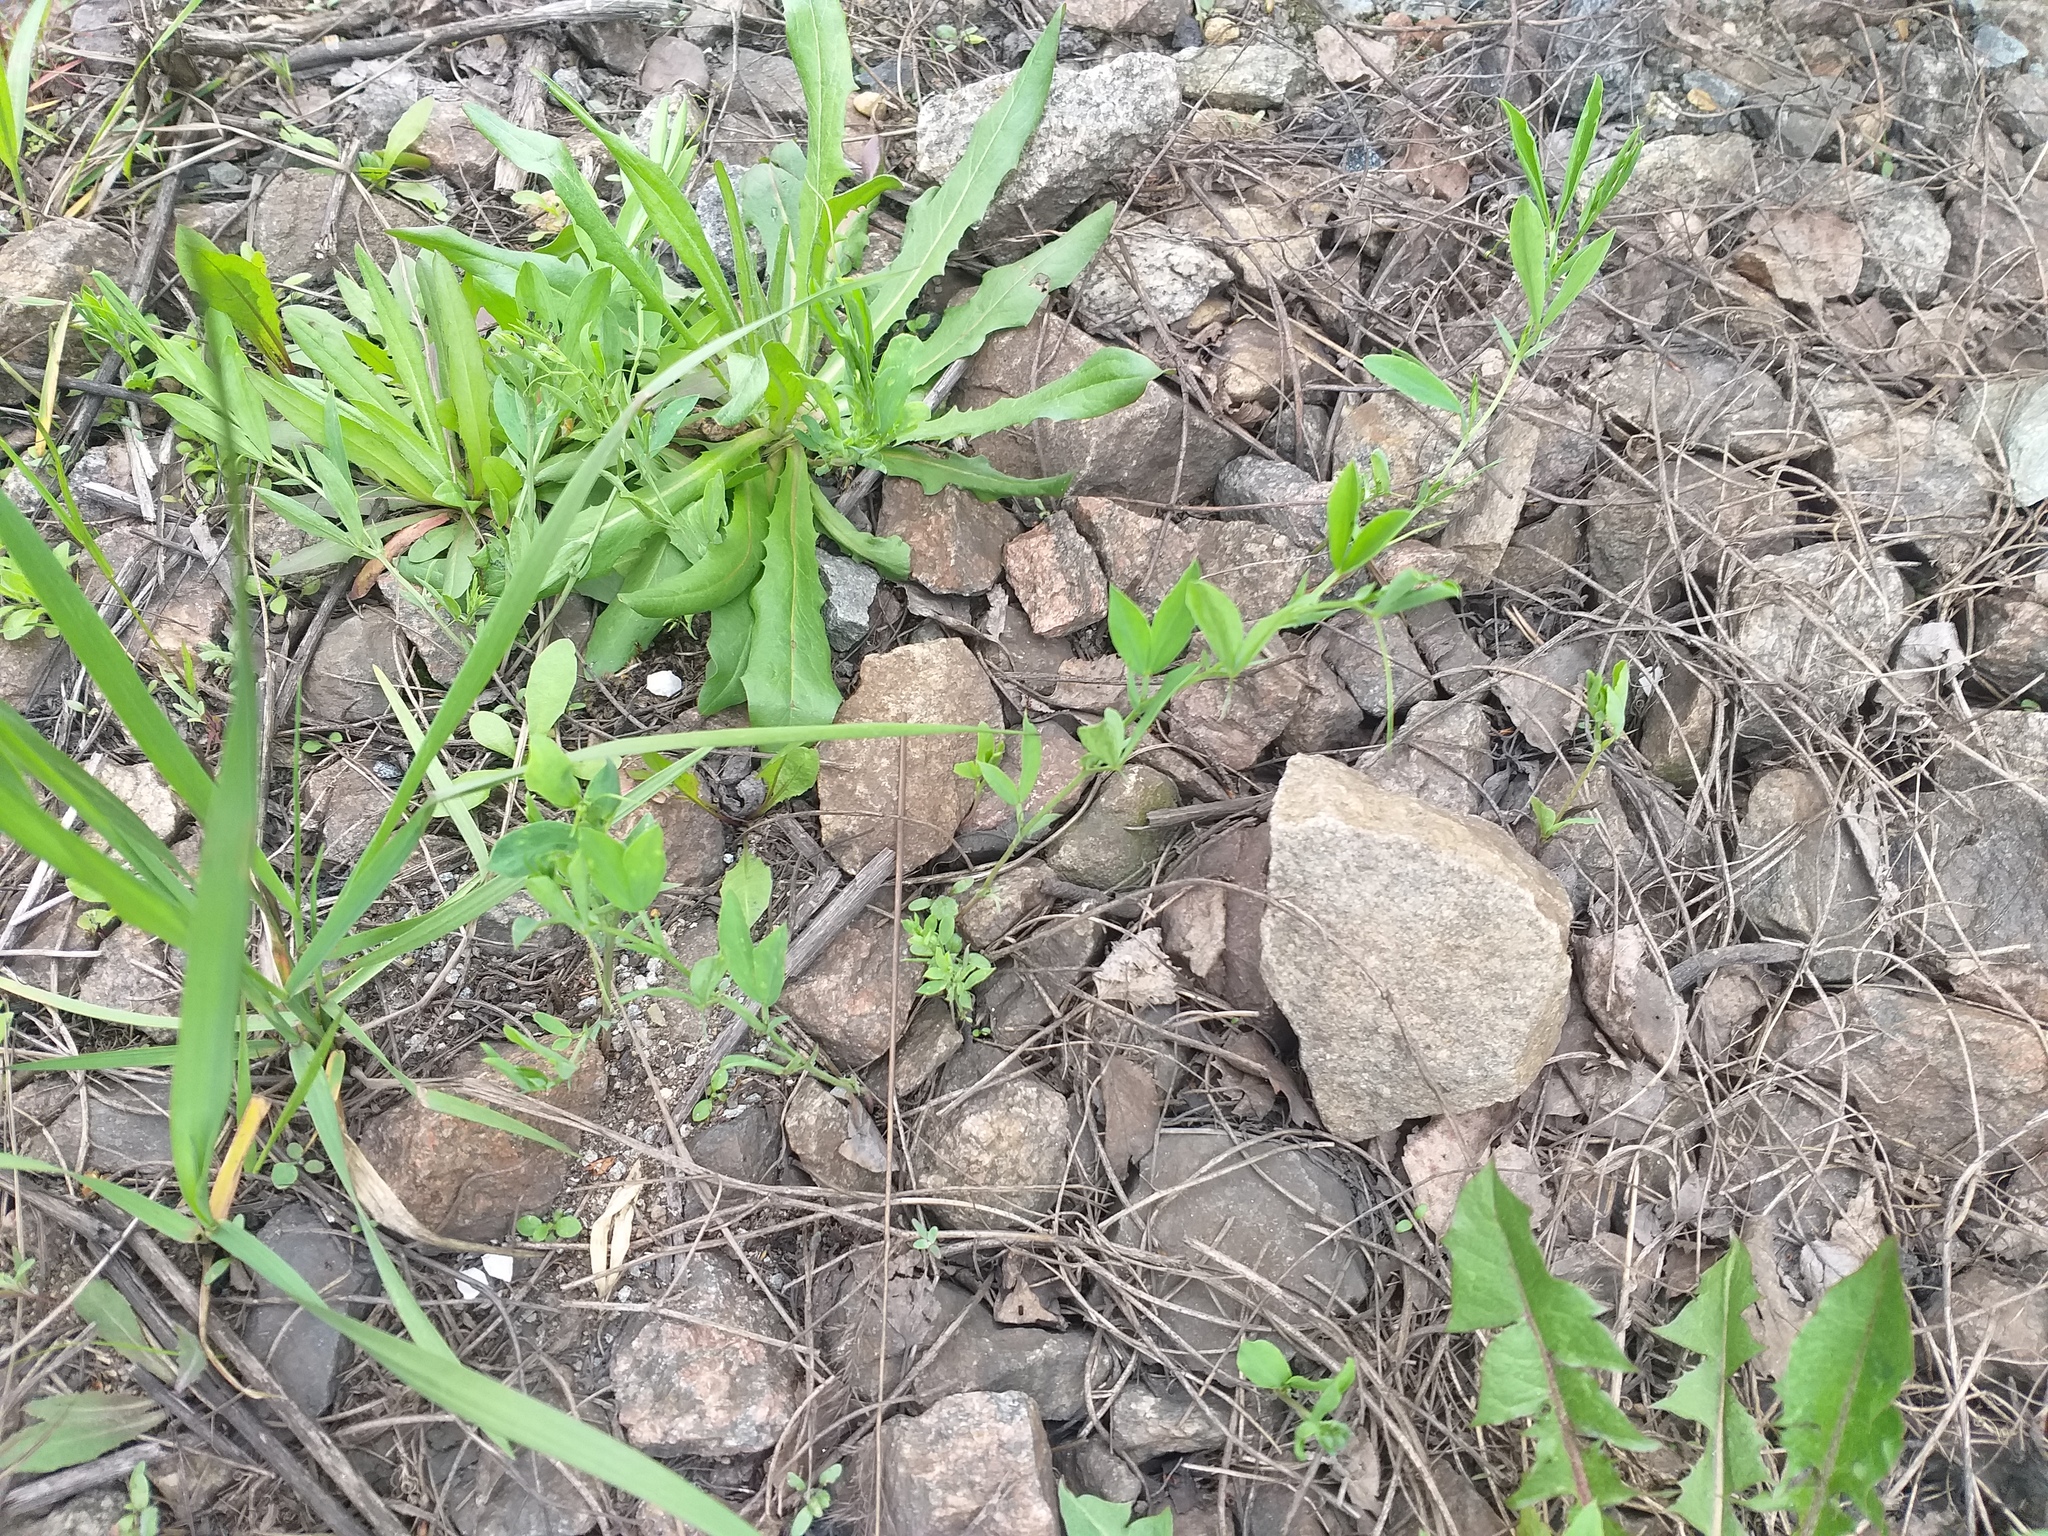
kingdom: Plantae
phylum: Tracheophyta
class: Magnoliopsida
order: Fabales
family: Fabaceae
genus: Lathyrus
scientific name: Lathyrus tuberosus
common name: Tuberous pea
